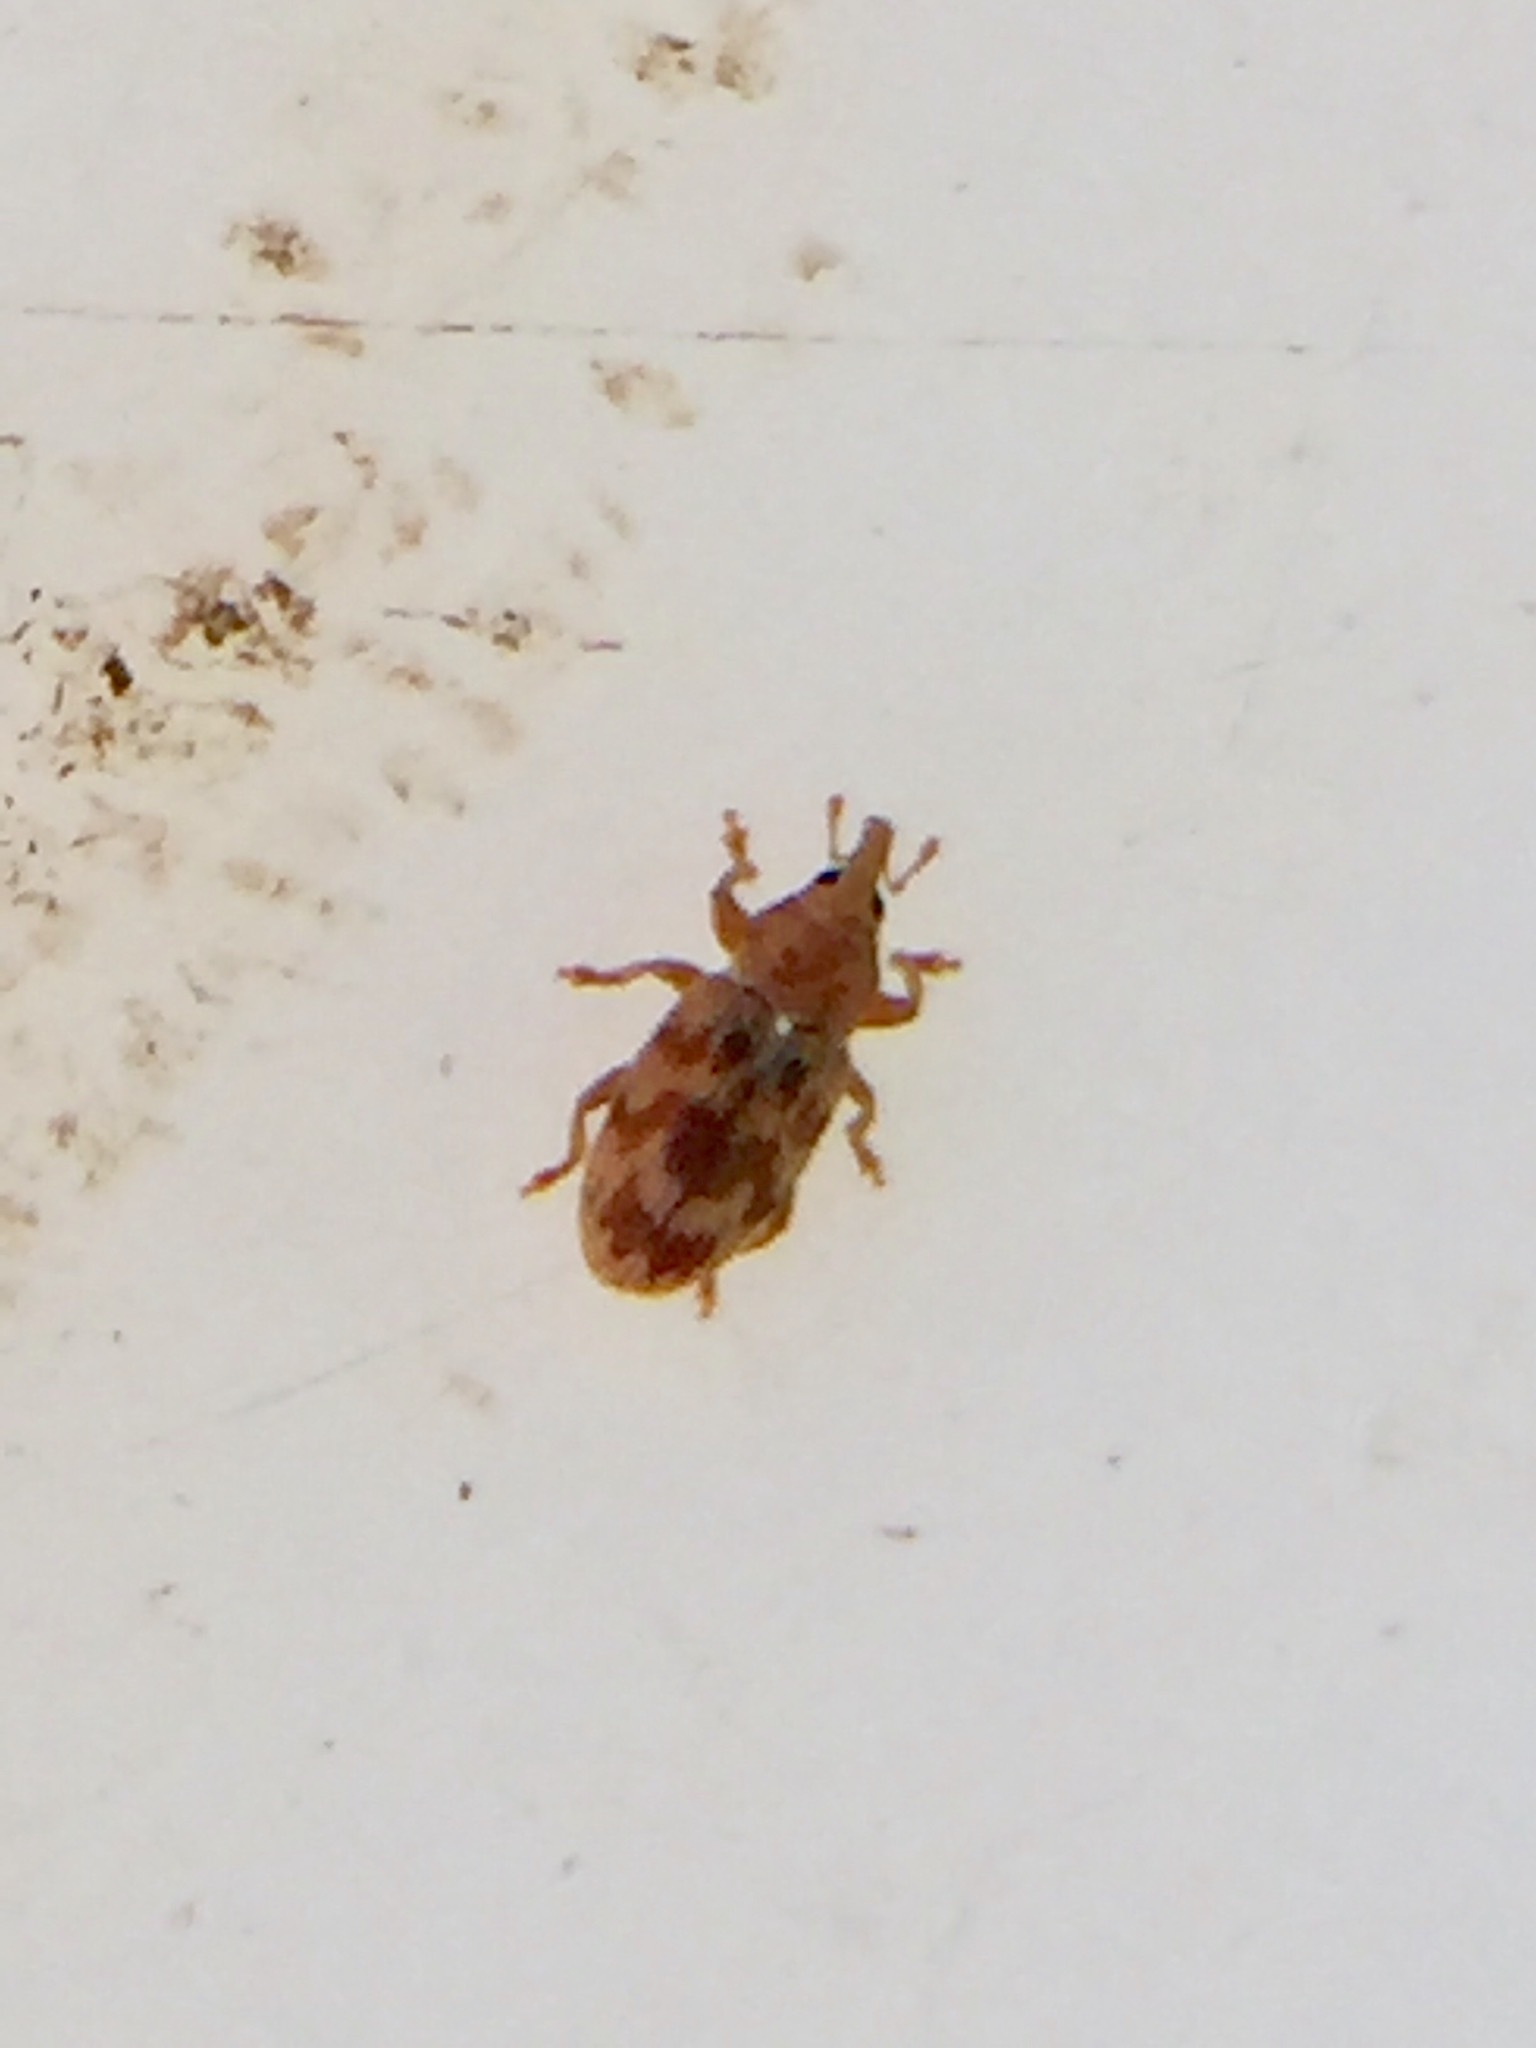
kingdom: Animalia
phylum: Arthropoda
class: Insecta
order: Coleoptera
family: Curculionidae
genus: Epamoebus
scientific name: Epamoebus ziczac
